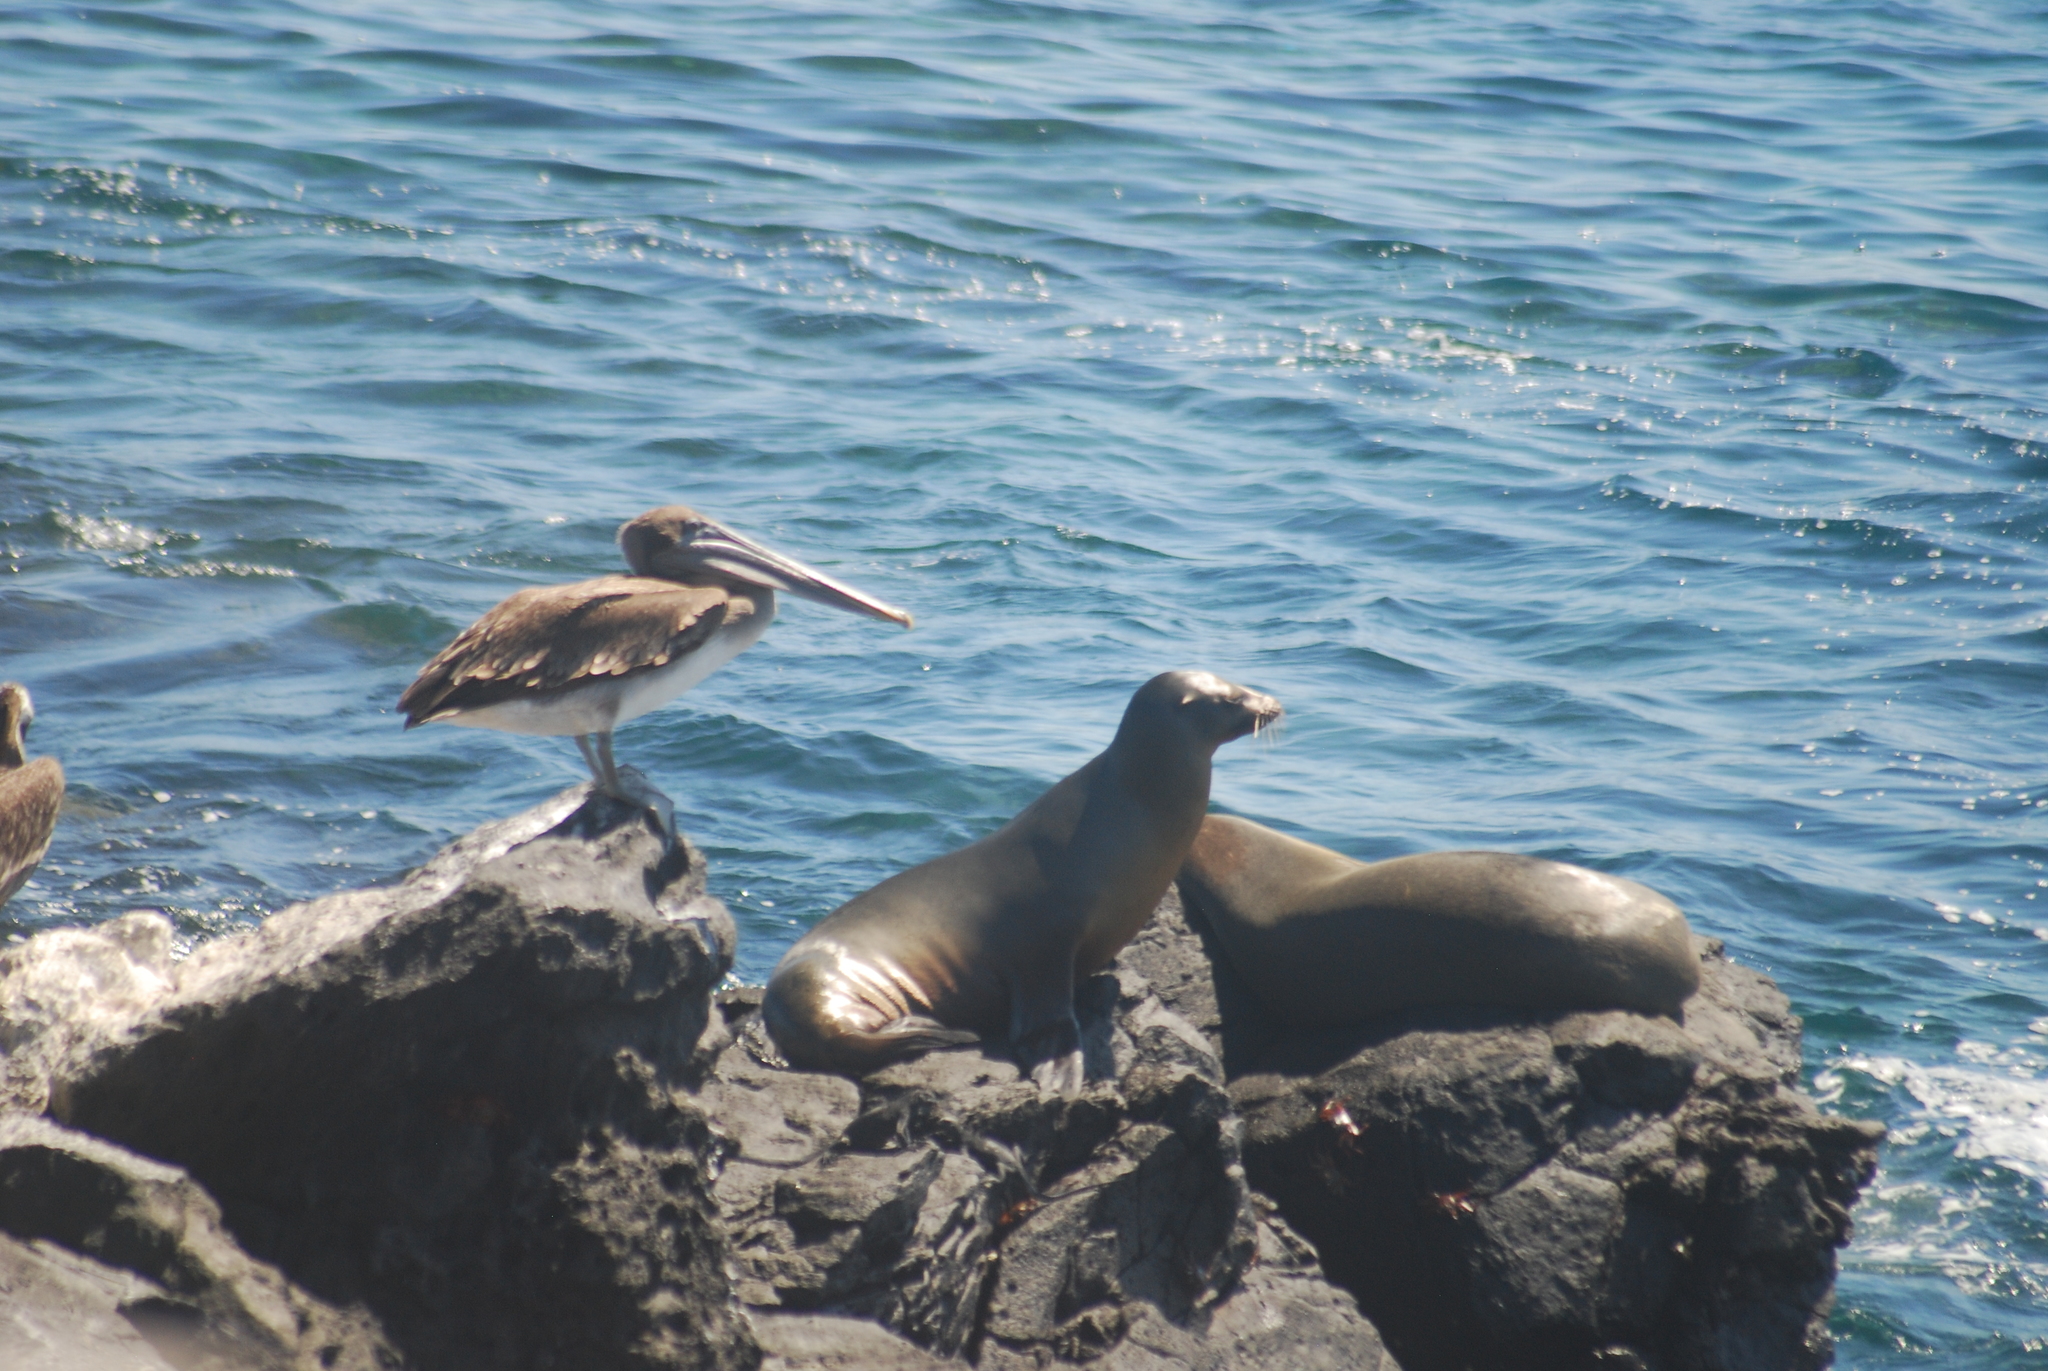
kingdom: Animalia
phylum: Chordata
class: Aves
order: Pelecaniformes
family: Pelecanidae
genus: Pelecanus
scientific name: Pelecanus occidentalis
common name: Brown pelican
